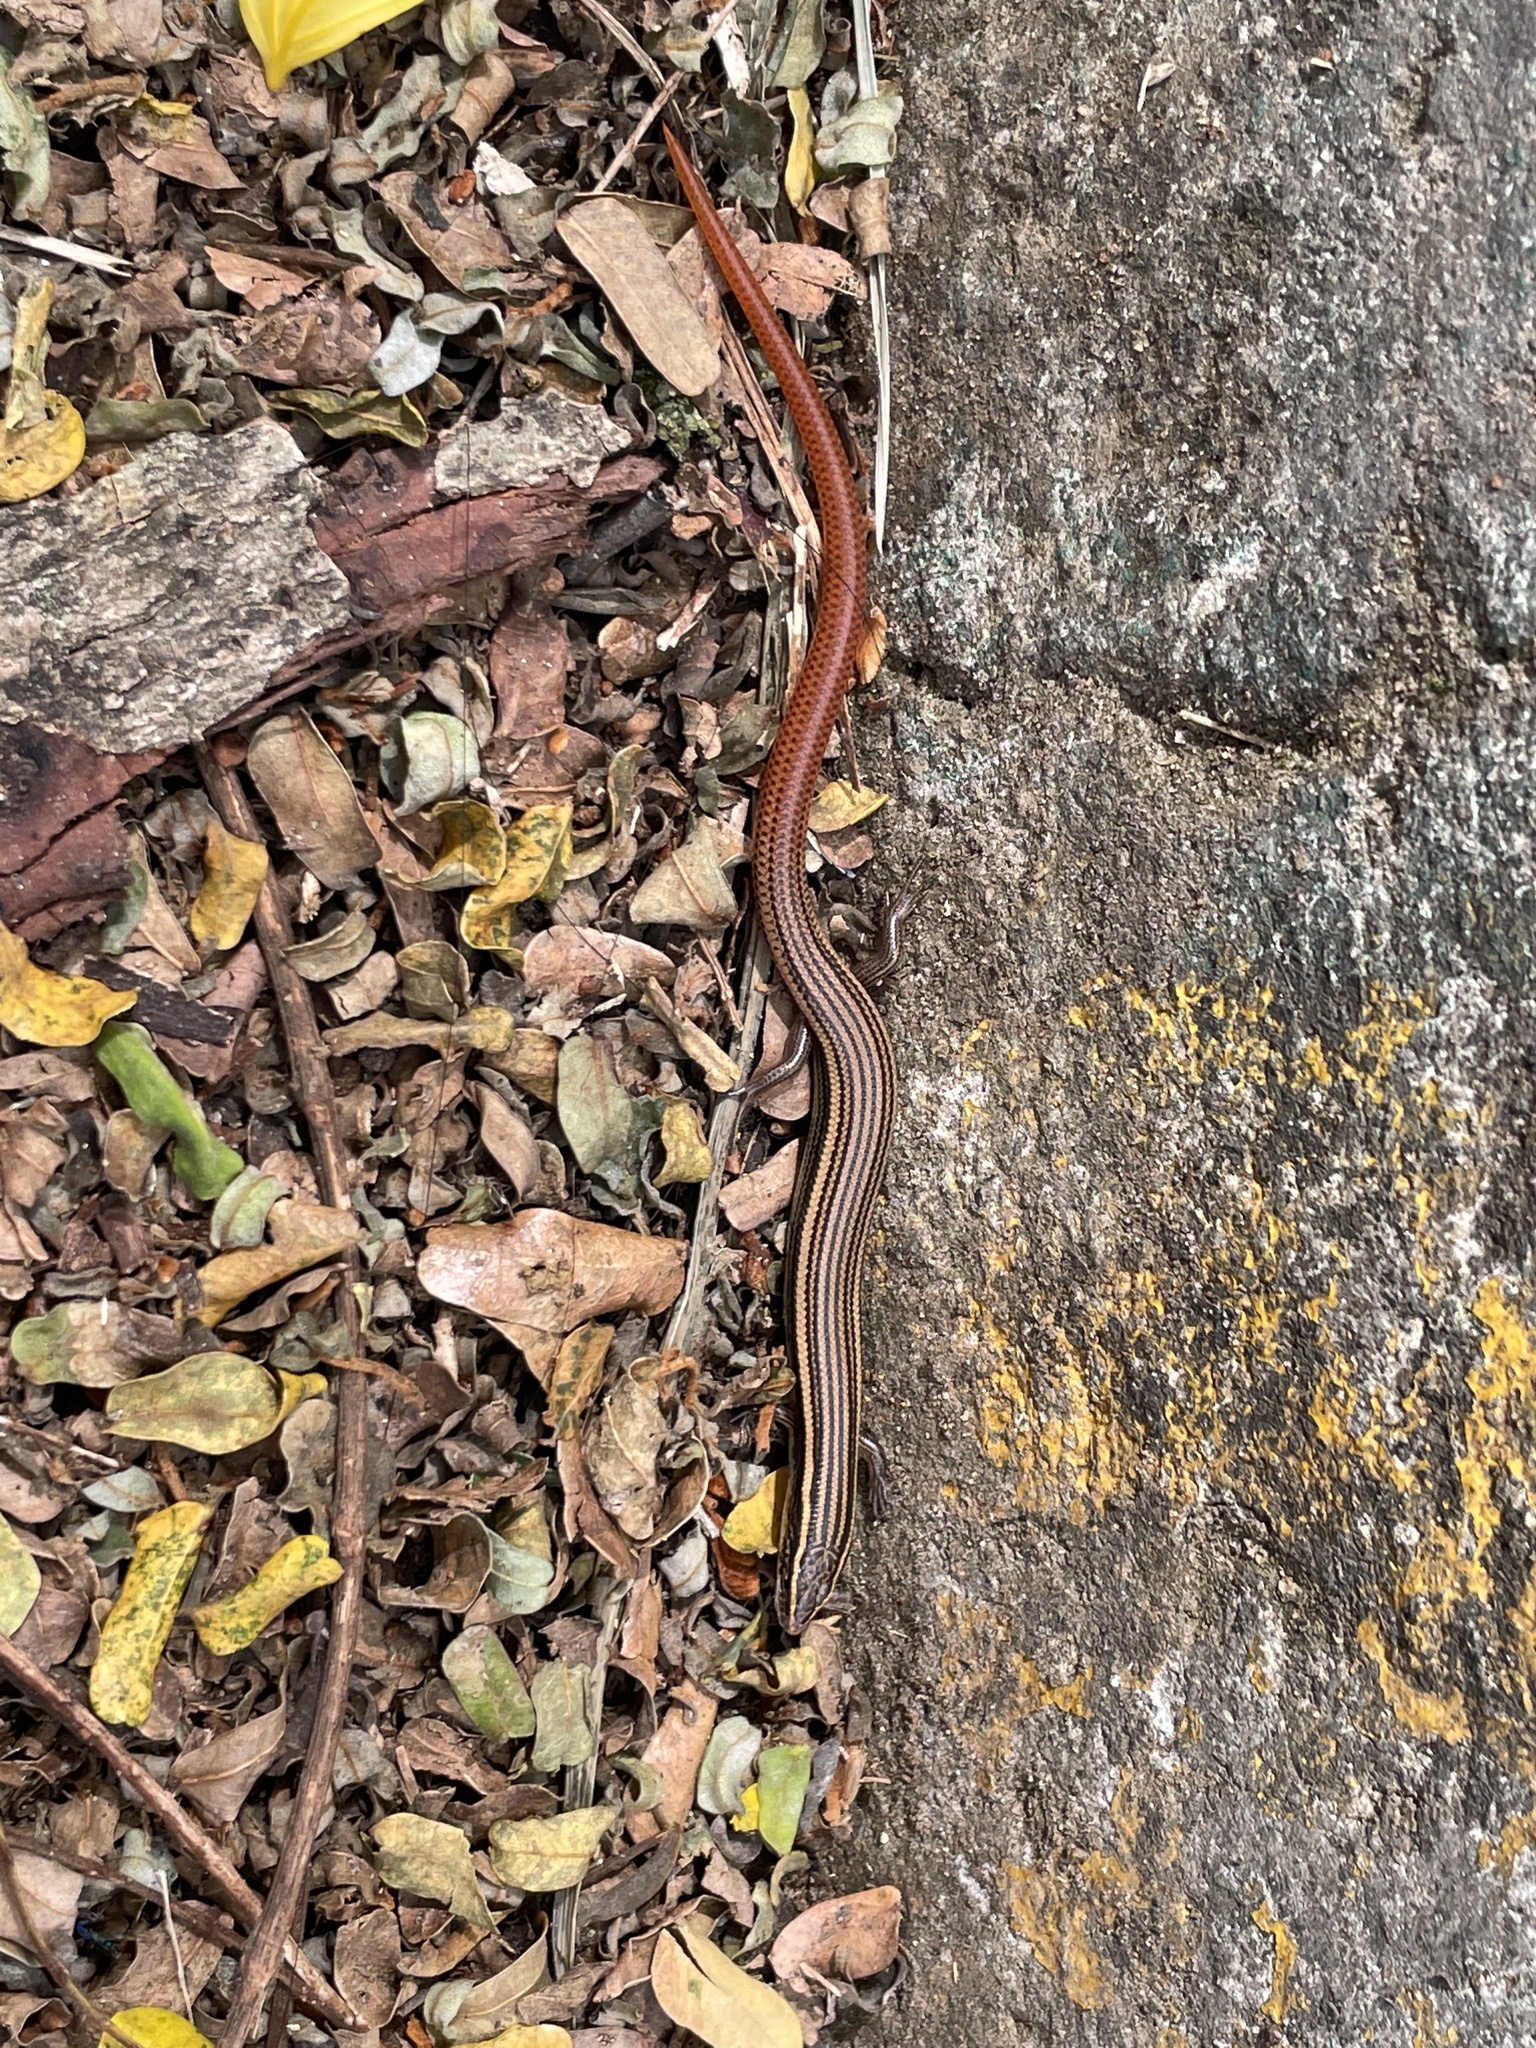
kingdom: Animalia
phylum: Chordata
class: Squamata
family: Scincidae
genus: Riopa
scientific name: Riopa punctata
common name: Common dotted garden skink
